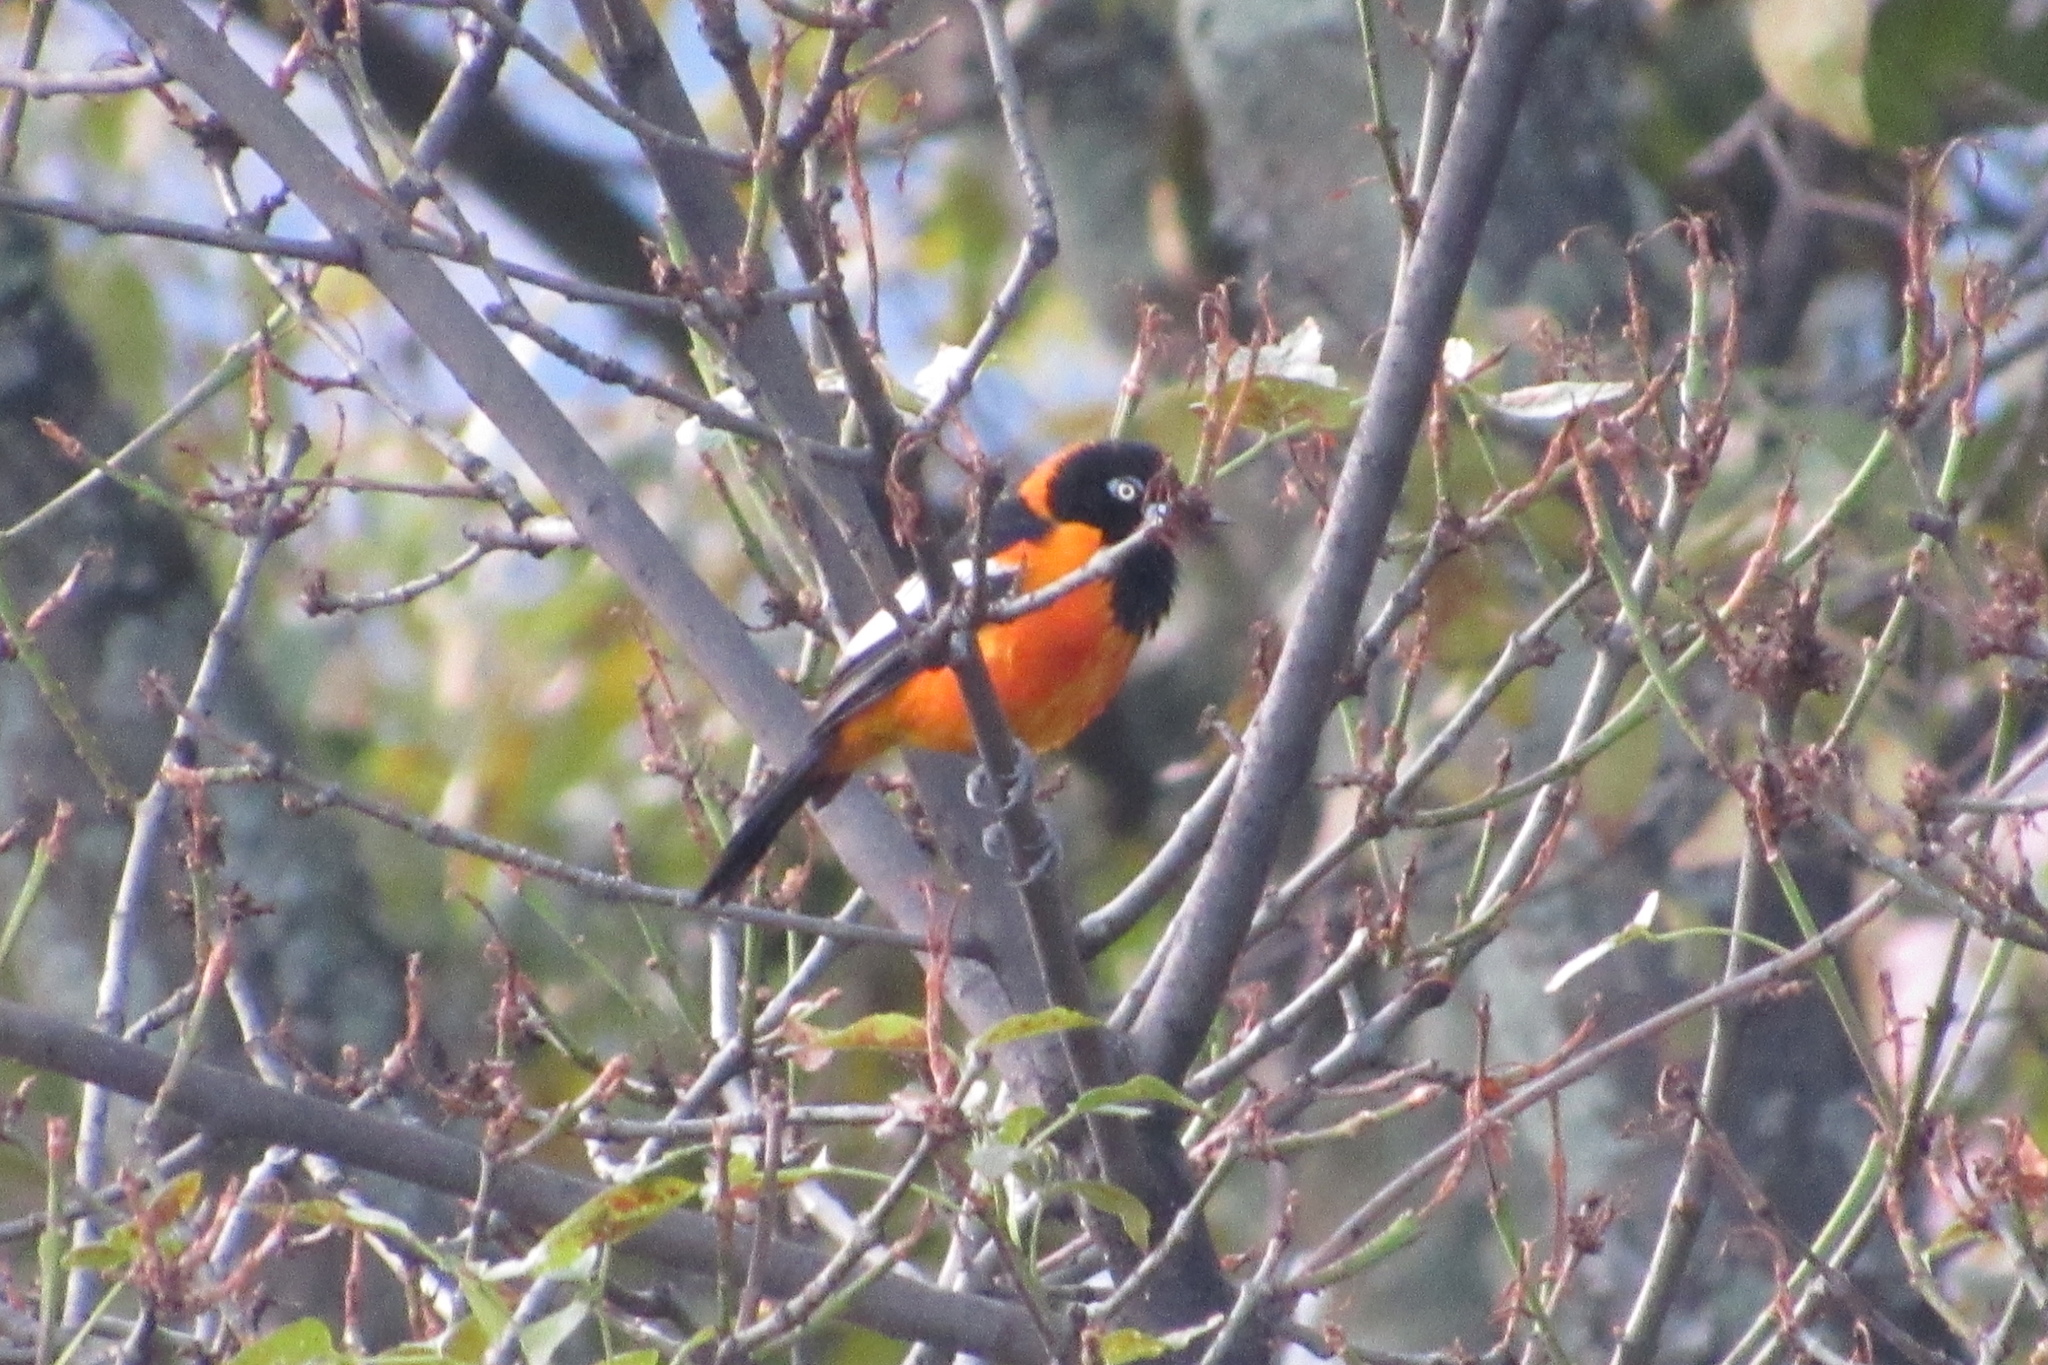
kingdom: Animalia
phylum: Chordata
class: Aves
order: Passeriformes
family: Icteridae
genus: Icterus
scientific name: Icterus icterus
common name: Venezuelan troupial
